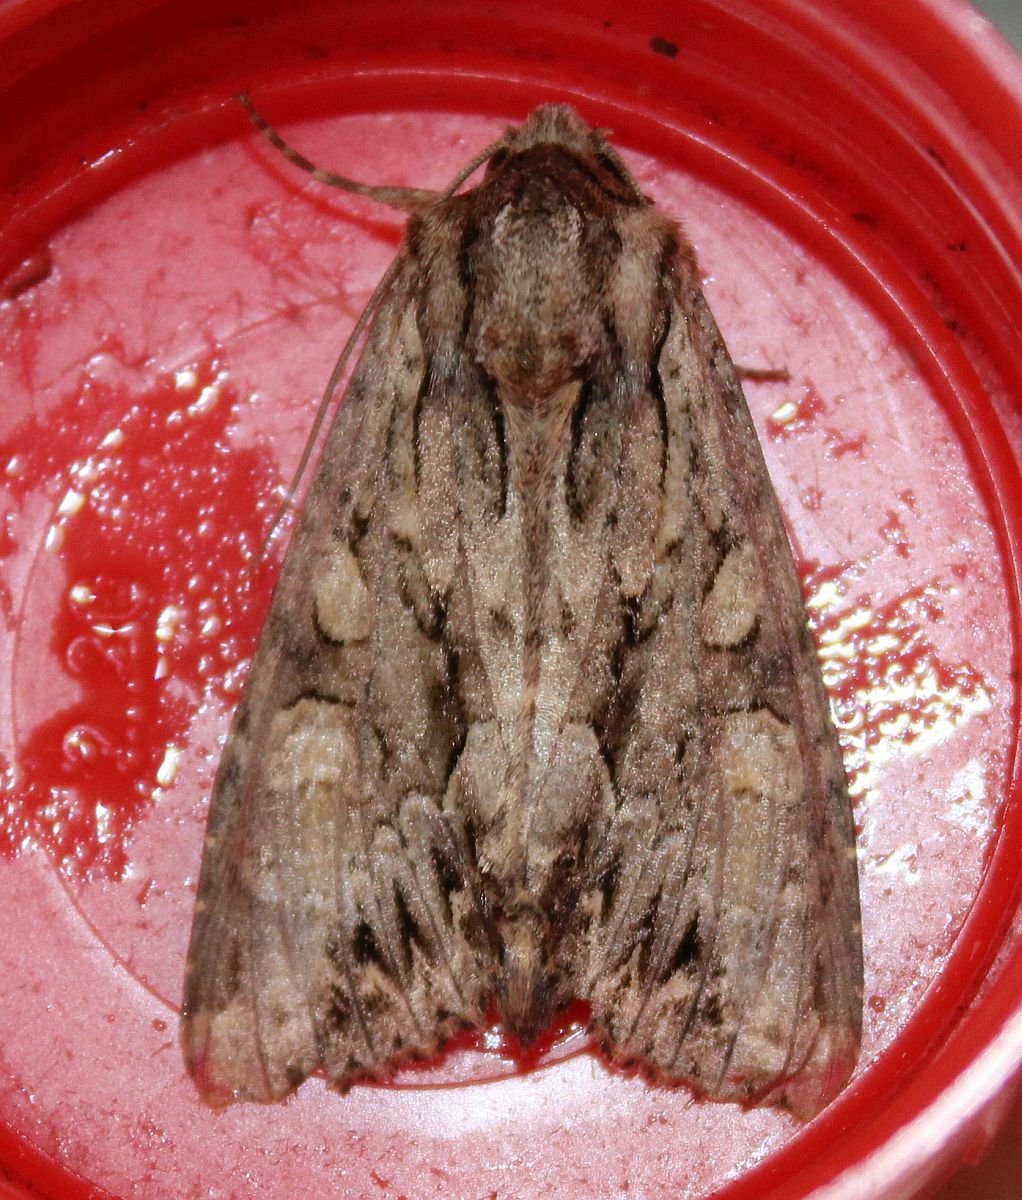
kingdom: Animalia
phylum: Arthropoda
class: Insecta
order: Lepidoptera
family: Noctuidae
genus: Apamea
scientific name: Apamea monoglypha
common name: Dark arches
